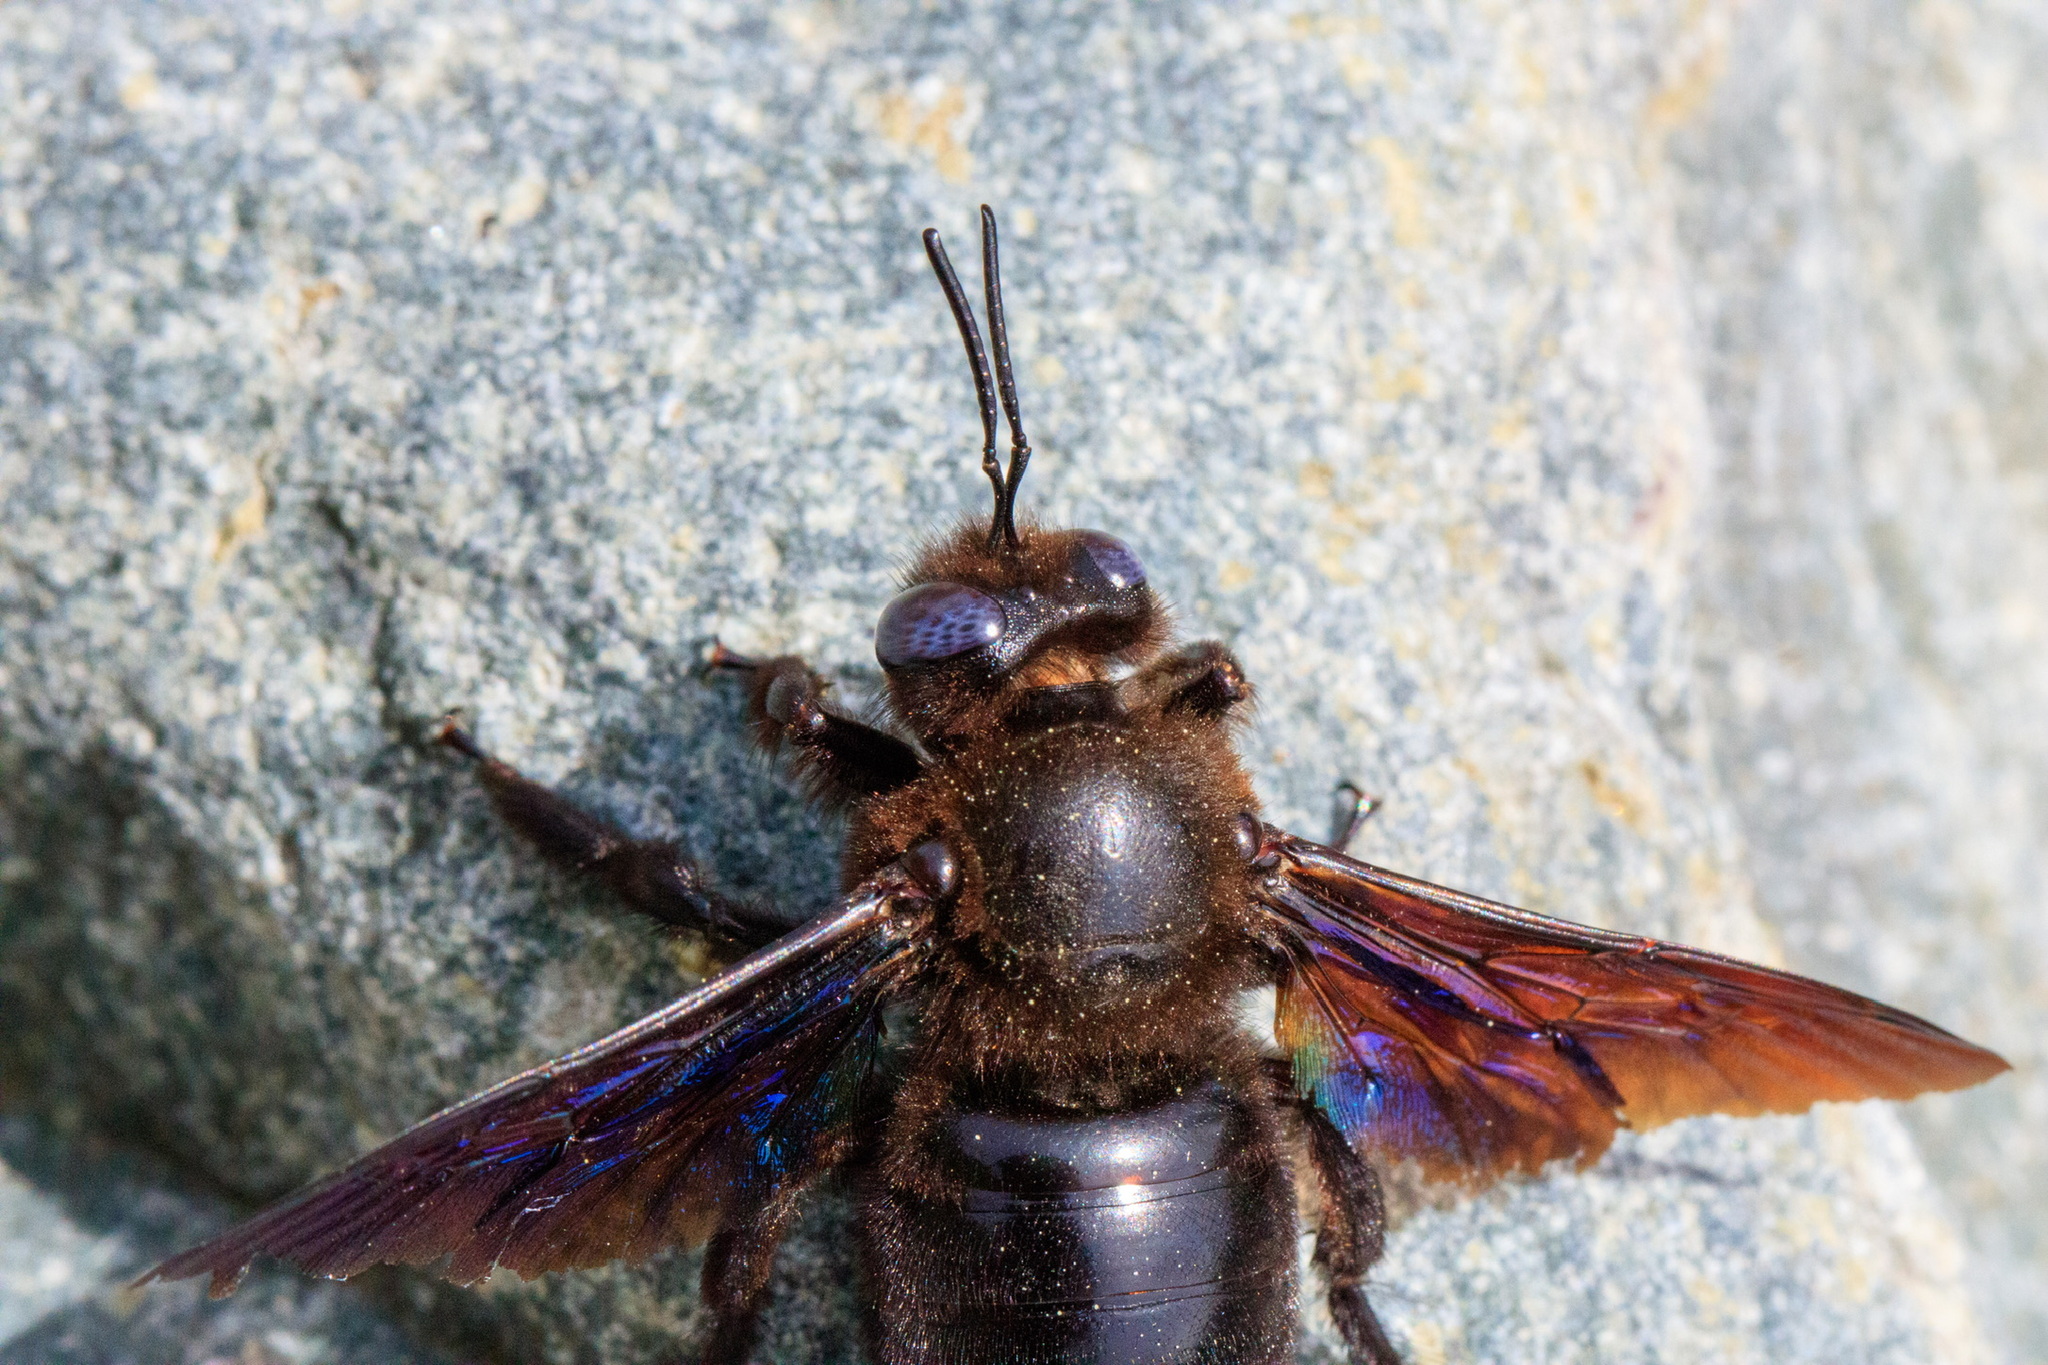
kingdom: Animalia
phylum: Arthropoda
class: Insecta
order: Hymenoptera
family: Apidae
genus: Xylocopa
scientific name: Xylocopa valga
